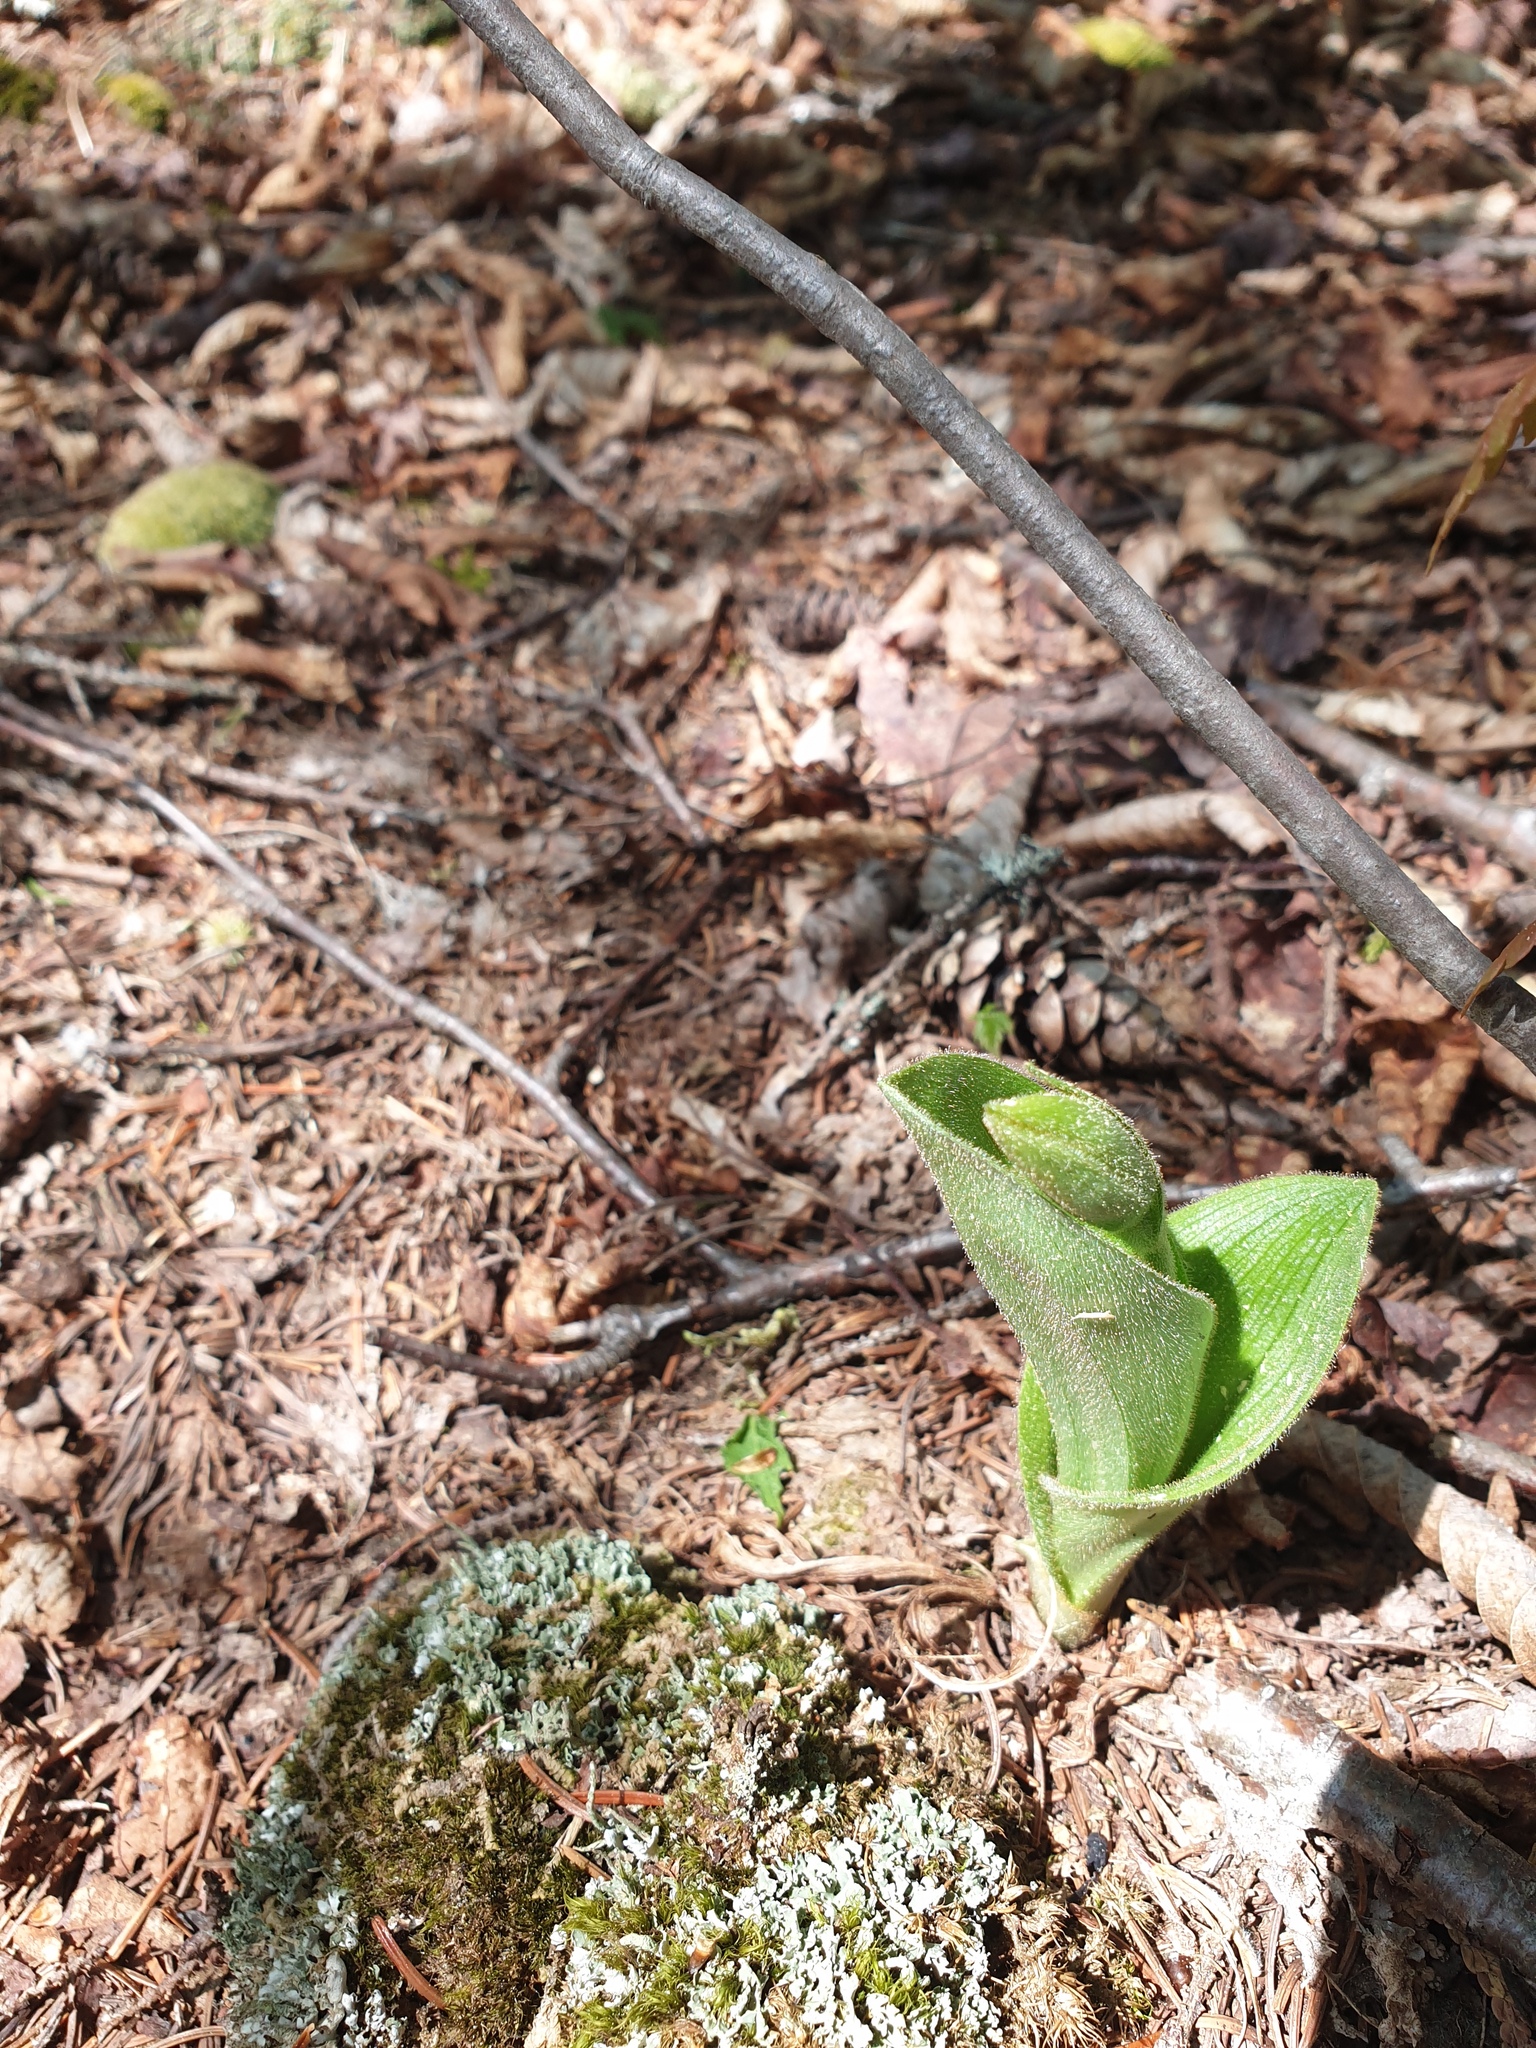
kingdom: Plantae
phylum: Tracheophyta
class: Liliopsida
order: Asparagales
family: Orchidaceae
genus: Cypripedium
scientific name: Cypripedium acaule
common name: Pink lady's-slipper
